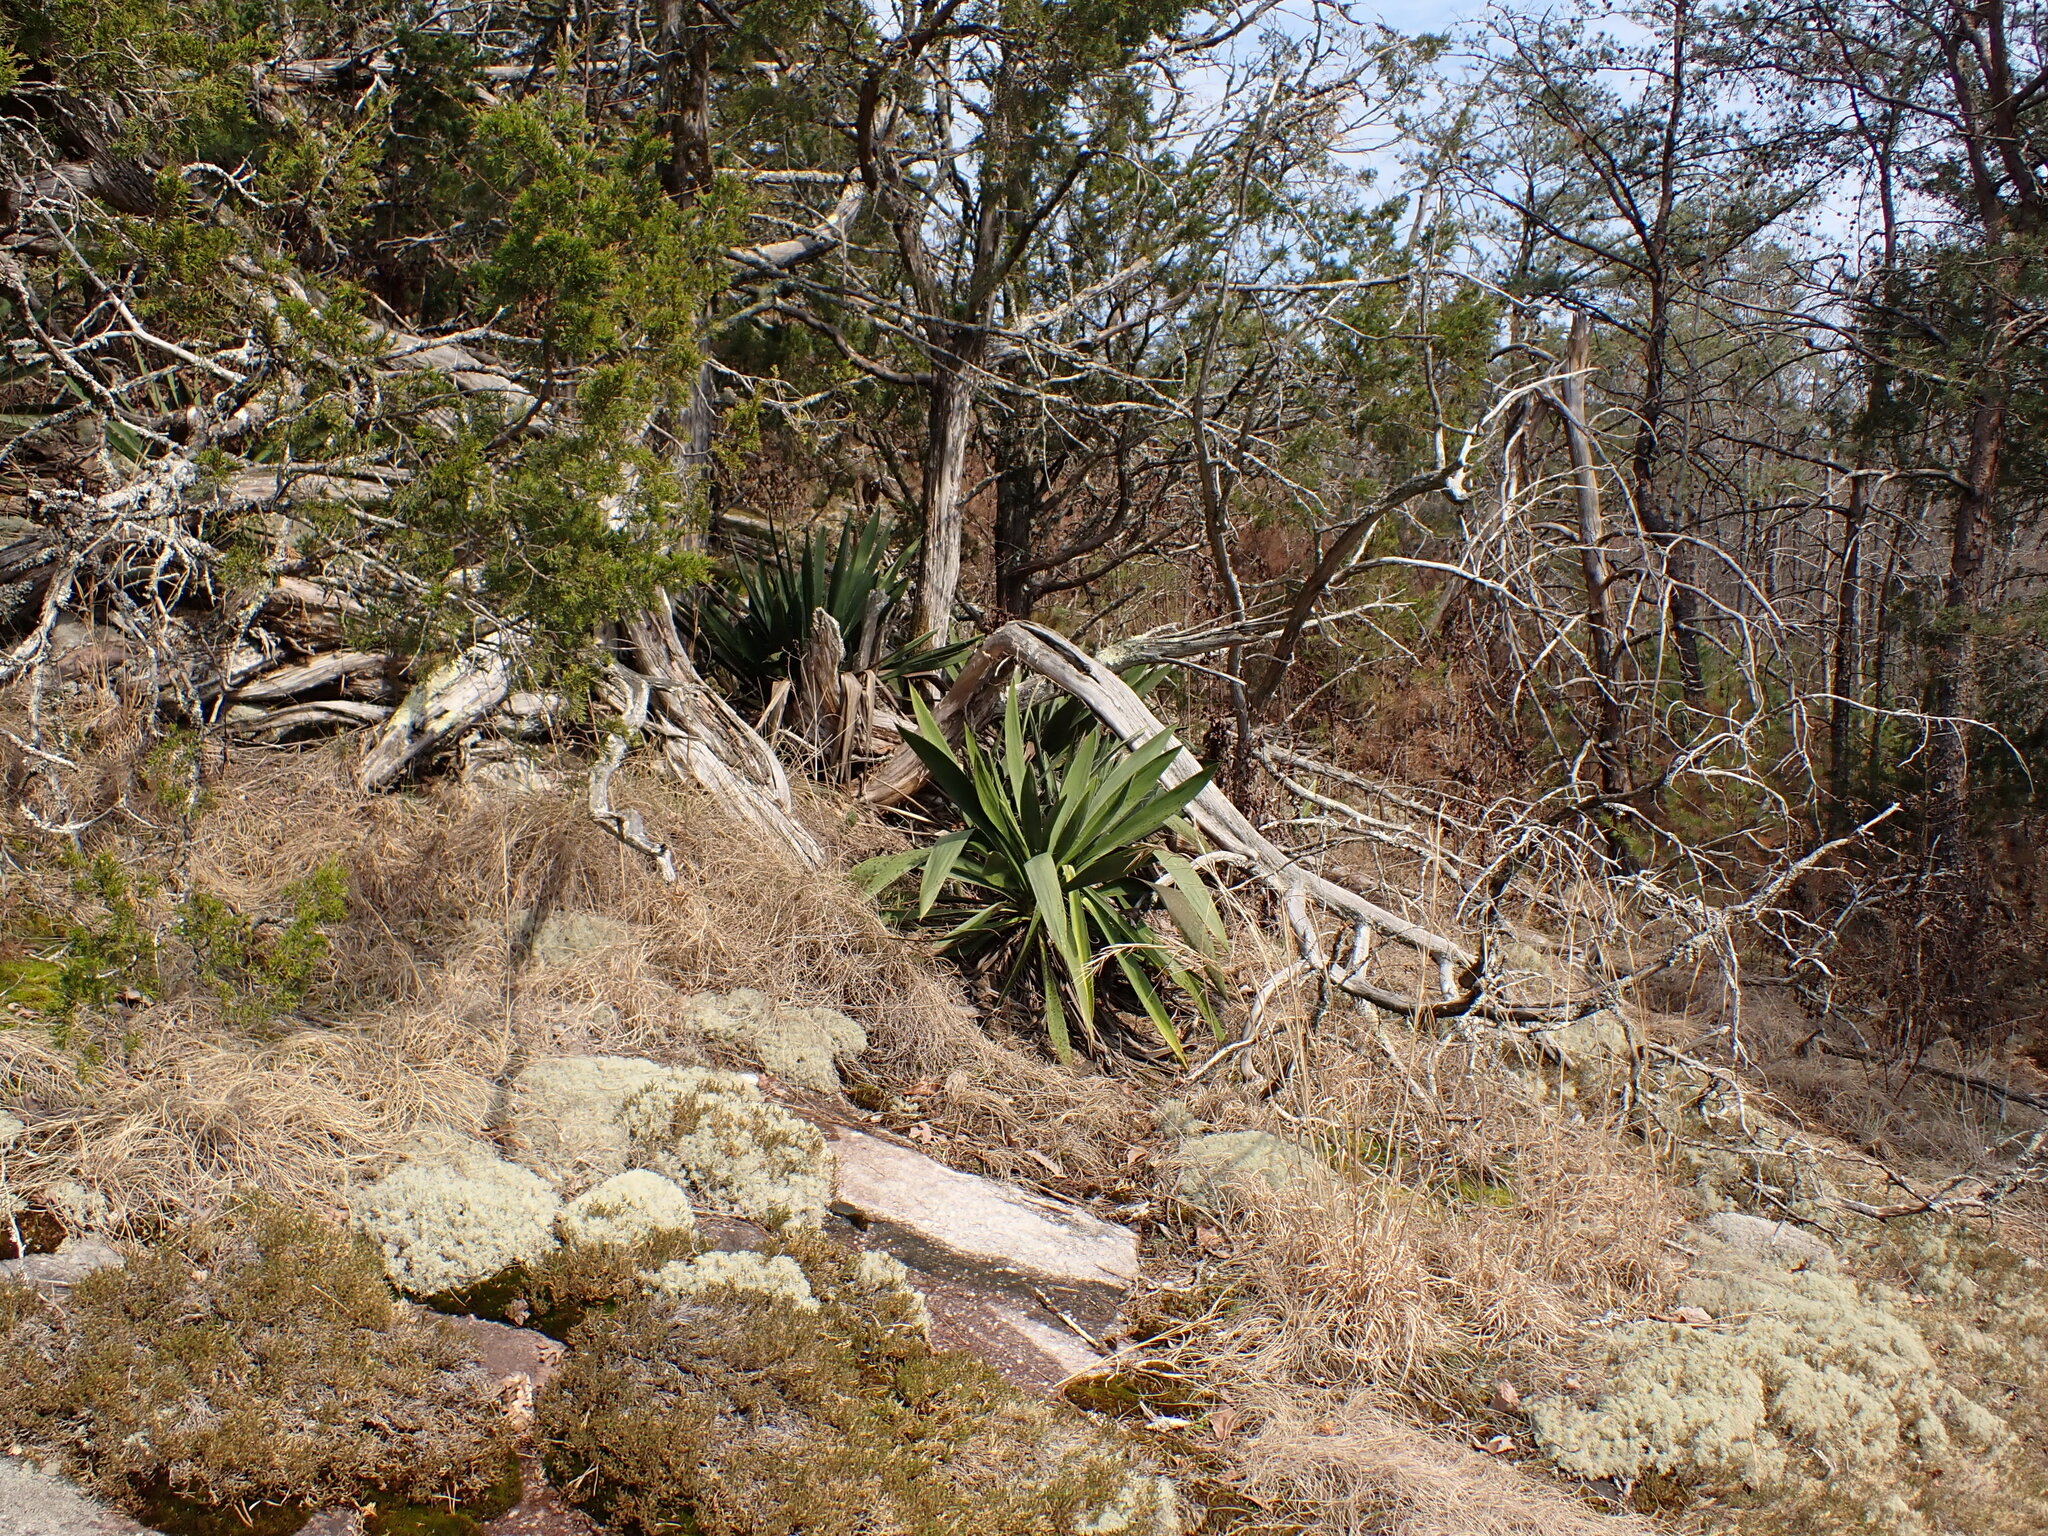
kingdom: Plantae
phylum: Tracheophyta
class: Liliopsida
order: Asparagales
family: Asparagaceae
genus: Yucca
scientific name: Yucca filamentosa
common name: Adam's-needle
